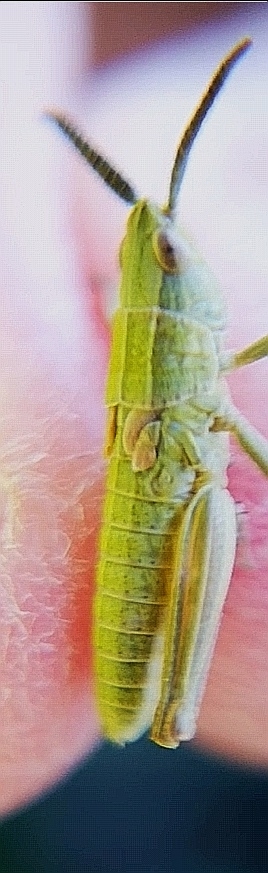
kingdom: Animalia
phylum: Arthropoda
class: Insecta
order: Orthoptera
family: Acrididae
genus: Euthystira
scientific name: Euthystira brachyptera
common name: Small gold grasshopper
